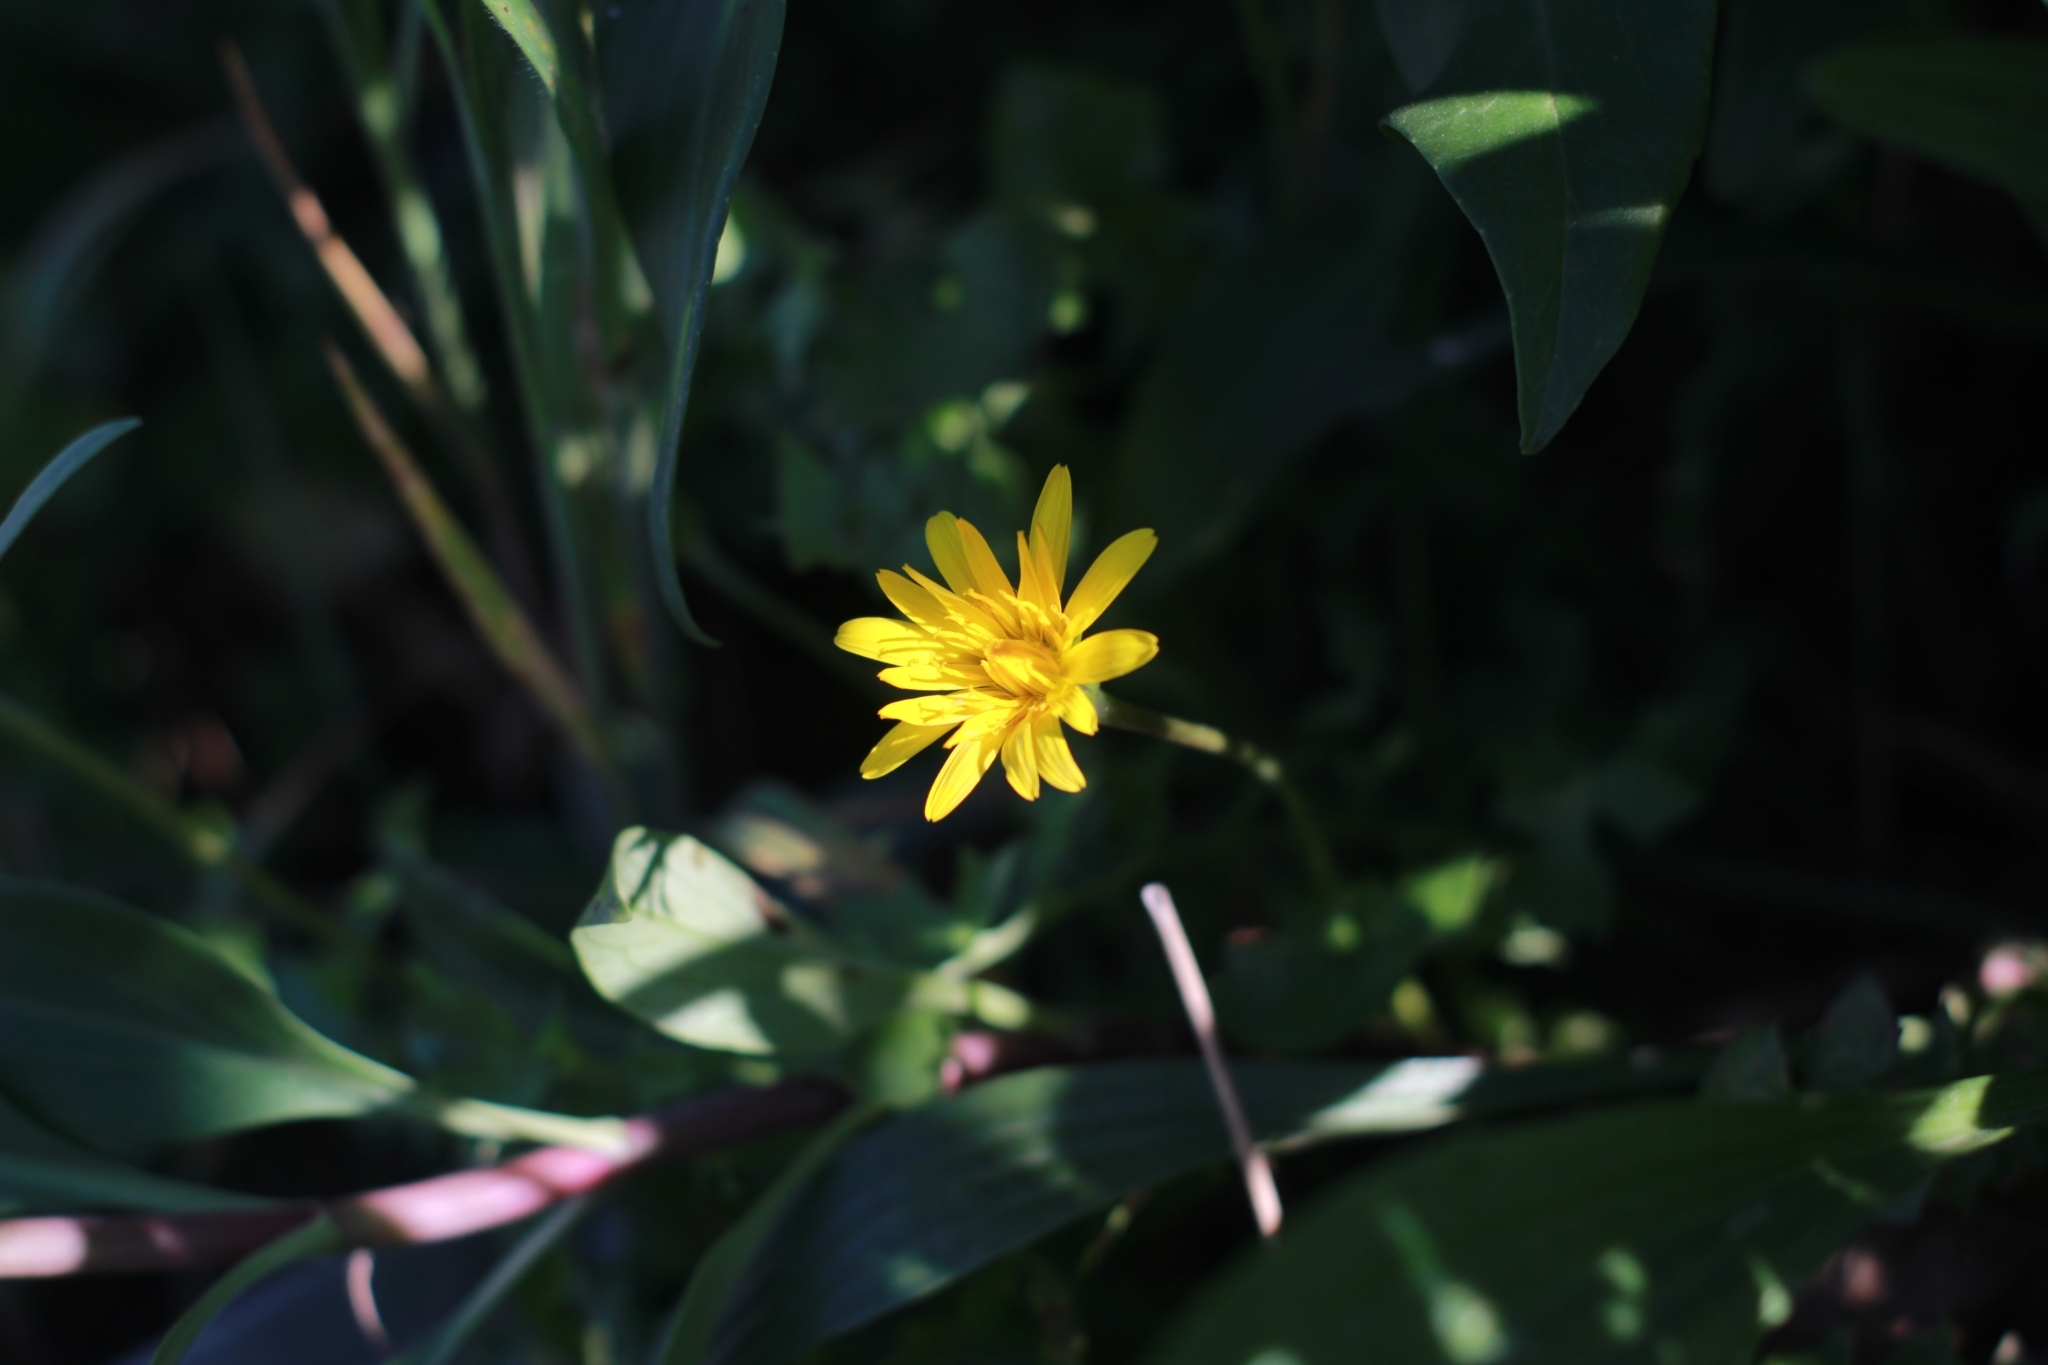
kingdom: Plantae
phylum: Tracheophyta
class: Magnoliopsida
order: Asterales
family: Asteraceae
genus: Hyoseris
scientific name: Hyoseris radiata
